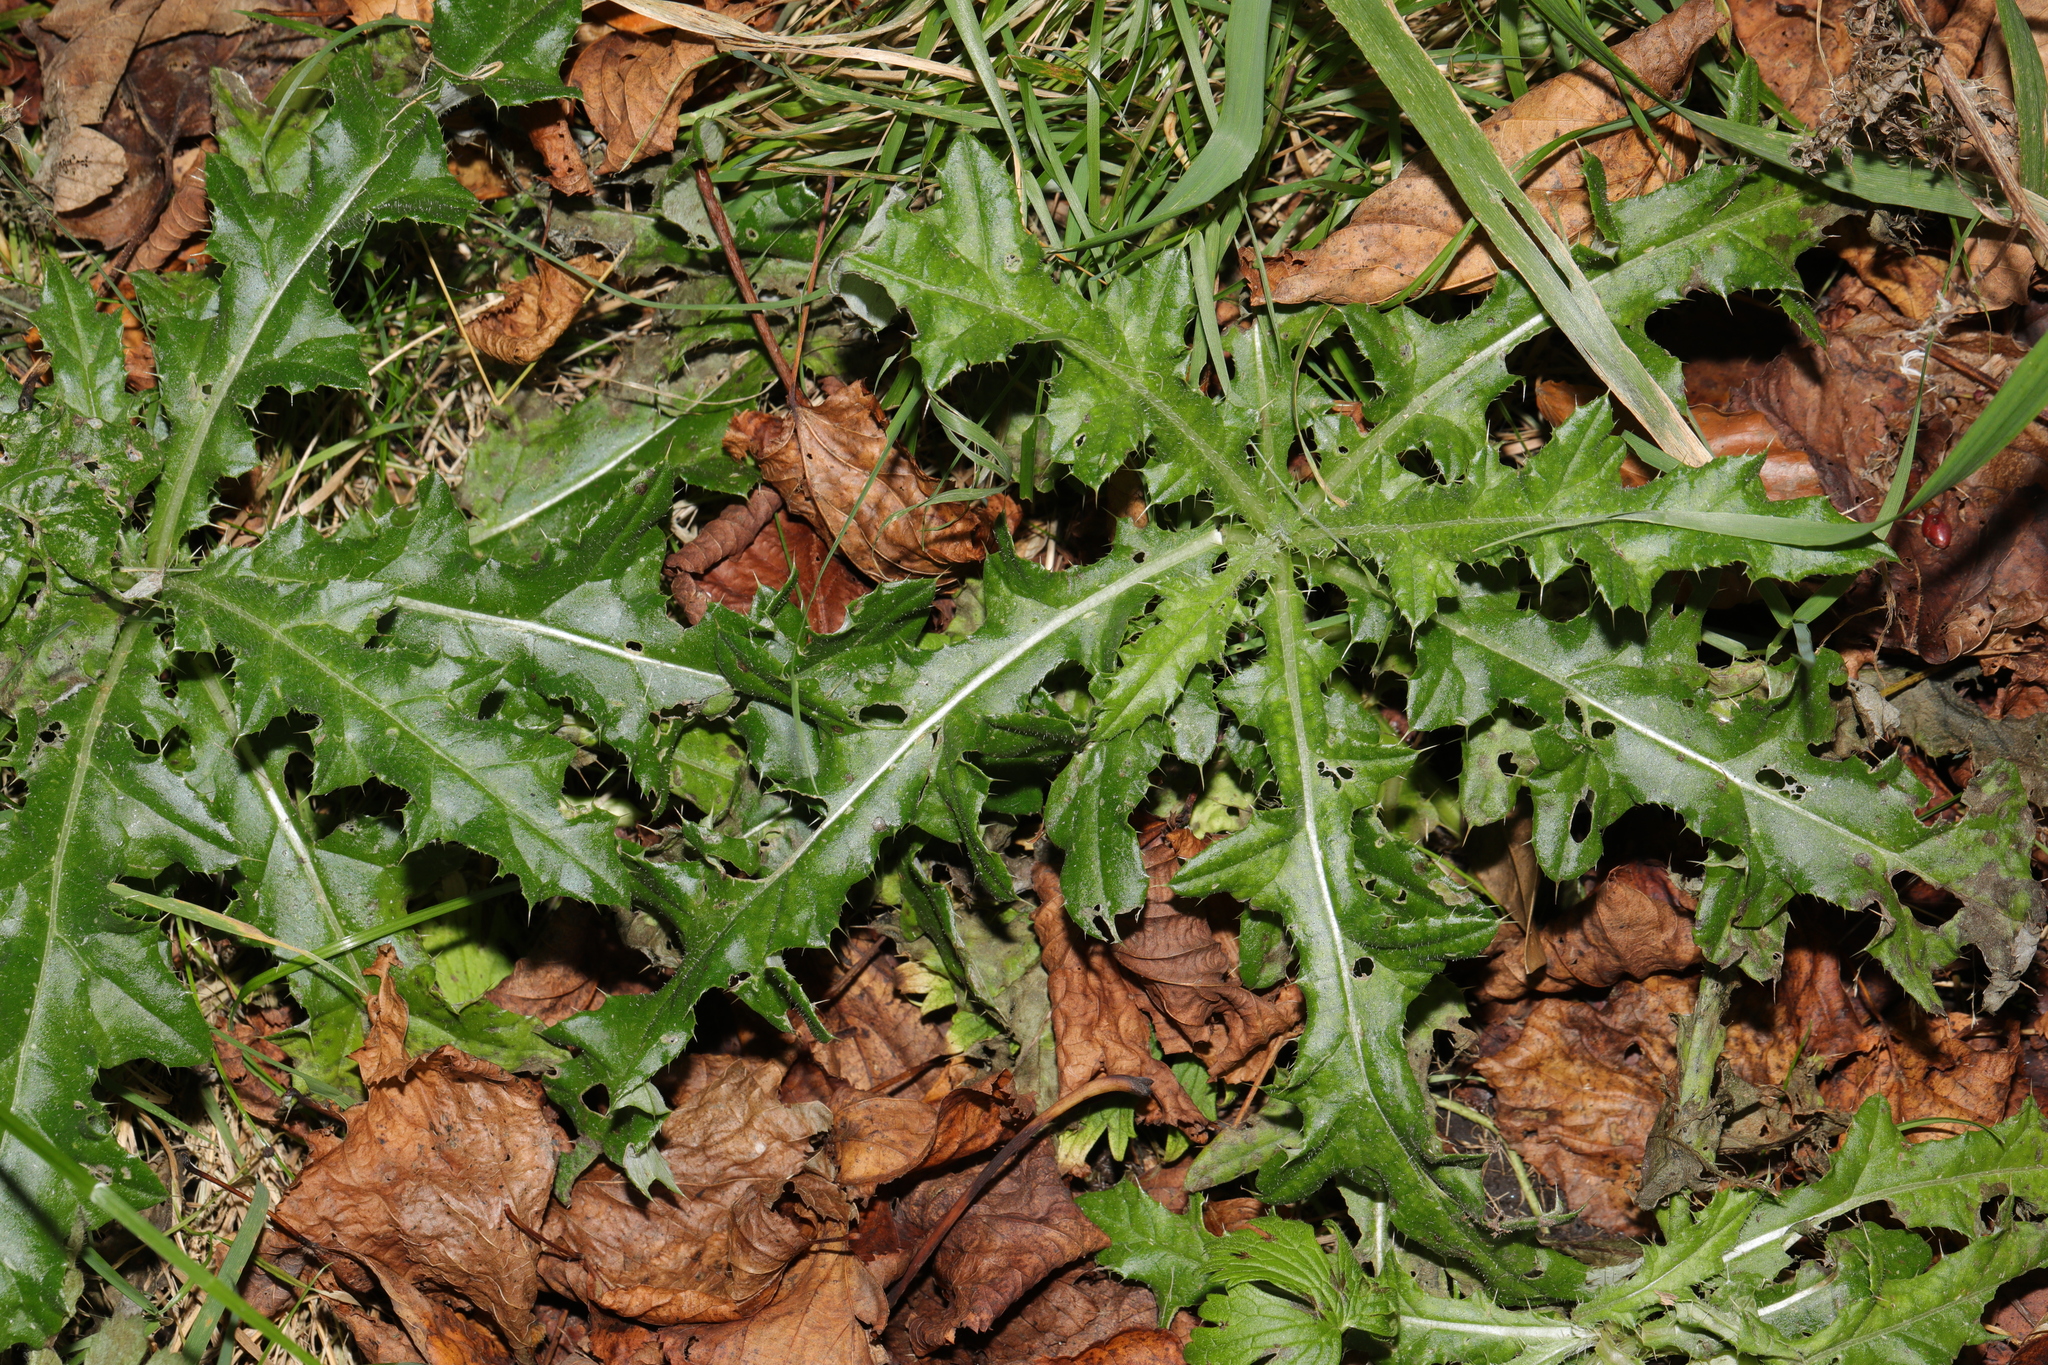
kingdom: Plantae
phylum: Tracheophyta
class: Magnoliopsida
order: Asterales
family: Asteraceae
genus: Cirsium
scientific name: Cirsium arvense
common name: Creeping thistle
